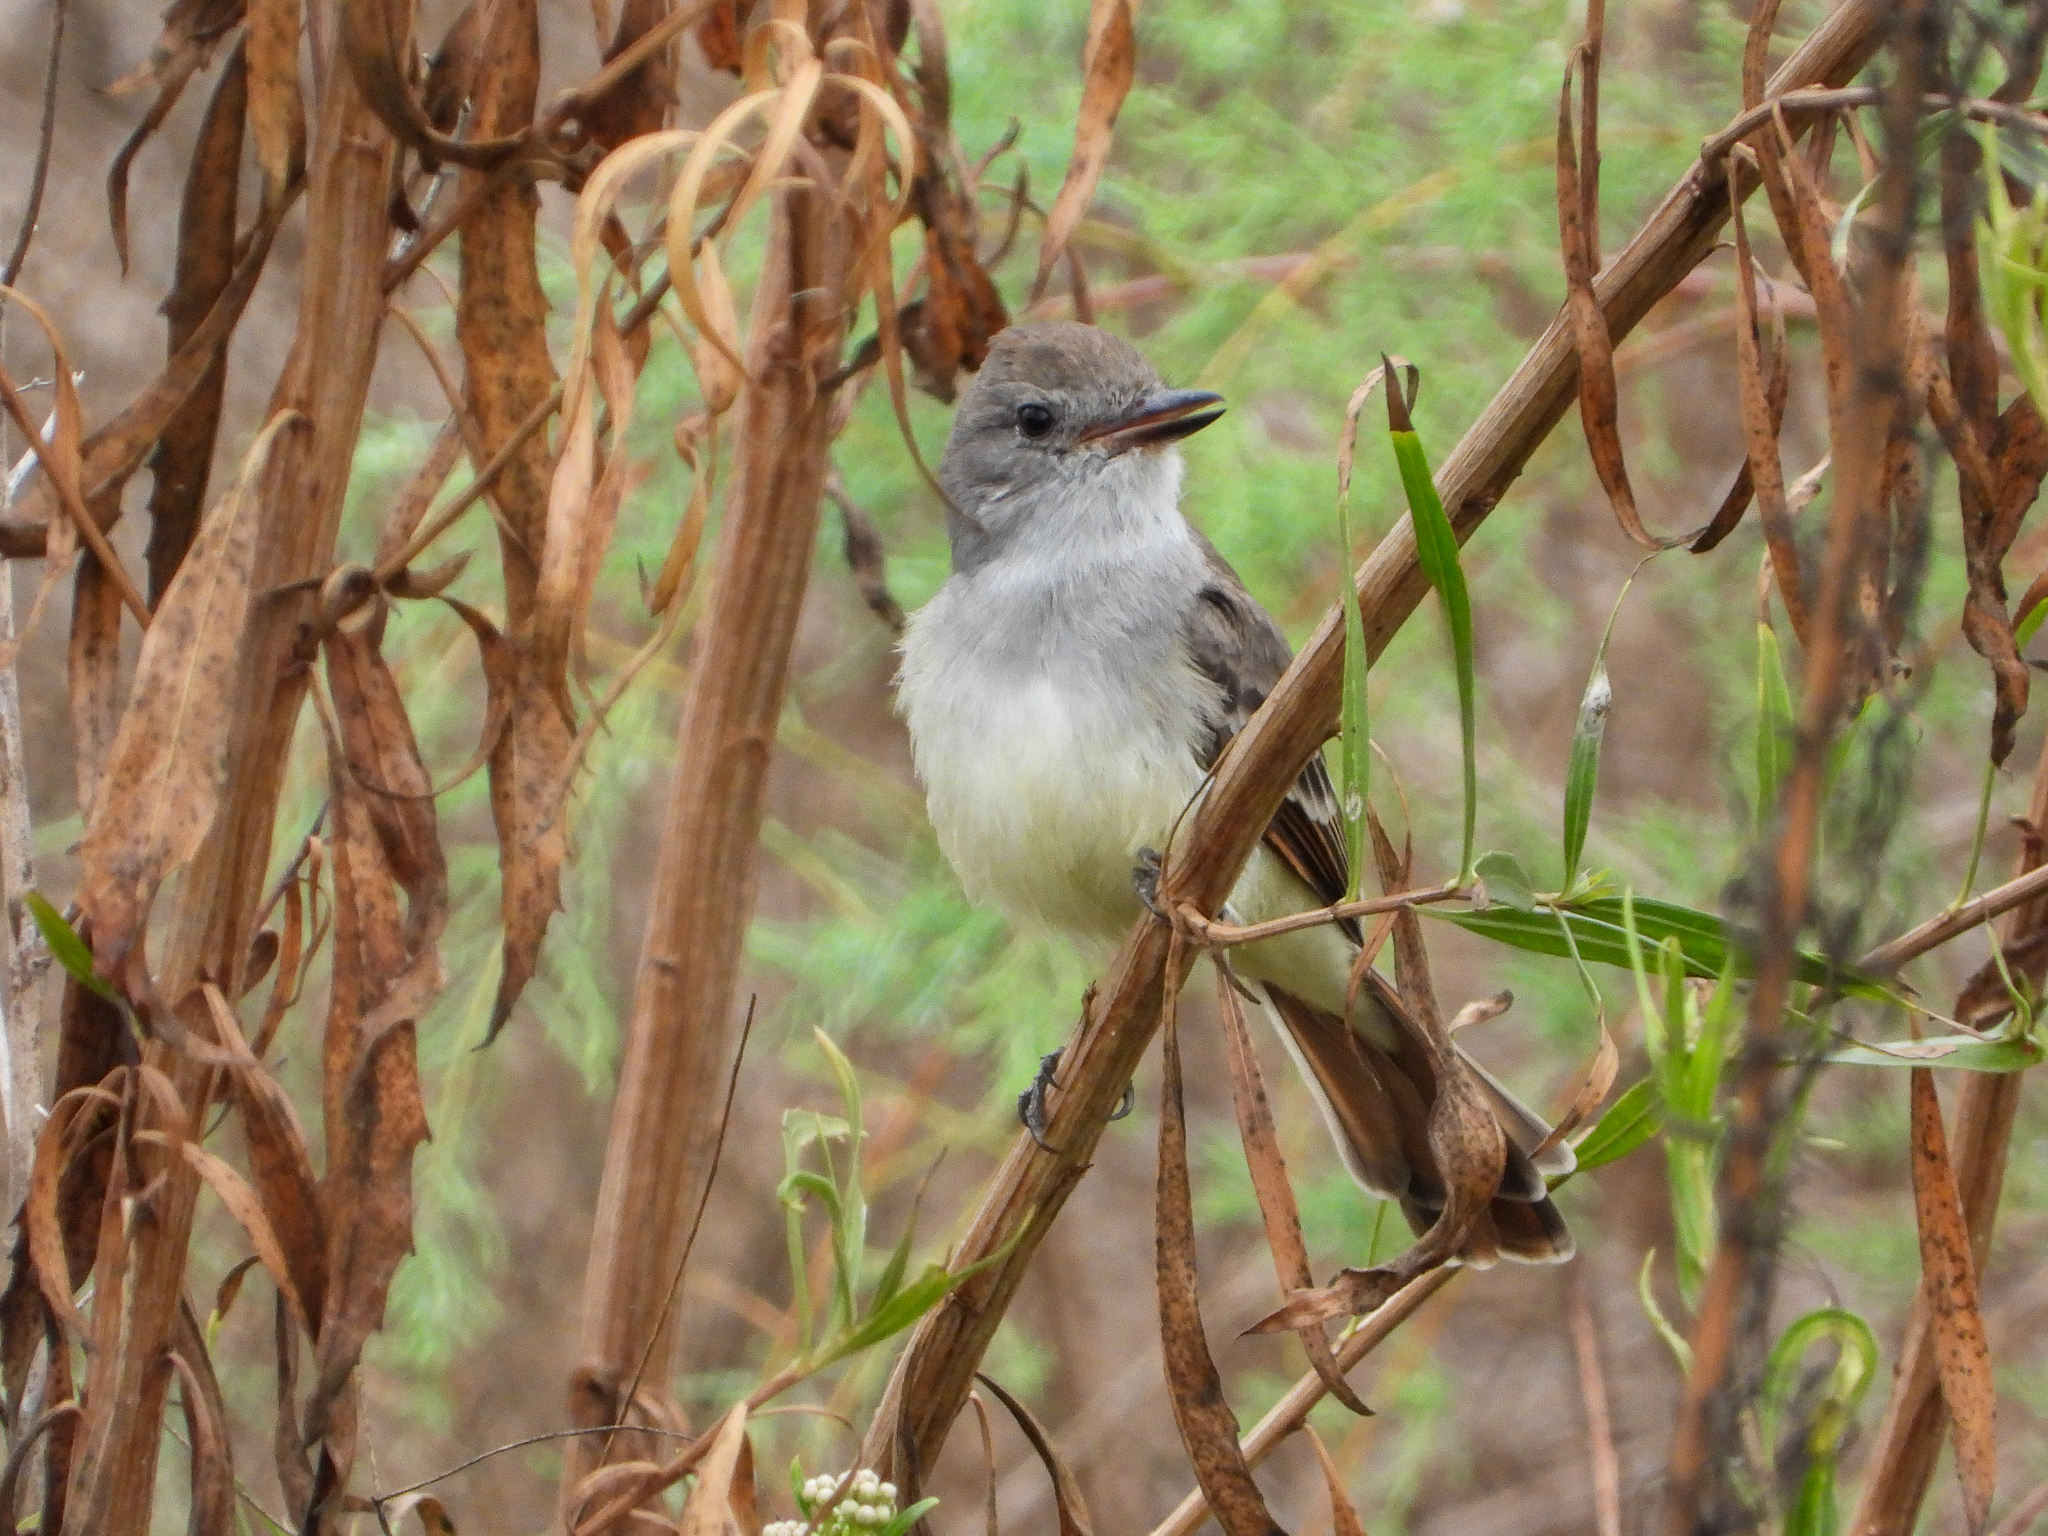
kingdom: Animalia
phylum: Chordata
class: Aves
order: Passeriformes
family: Tyrannidae
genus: Myiarchus
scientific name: Myiarchus cinerascens
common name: Ash-throated flycatcher
